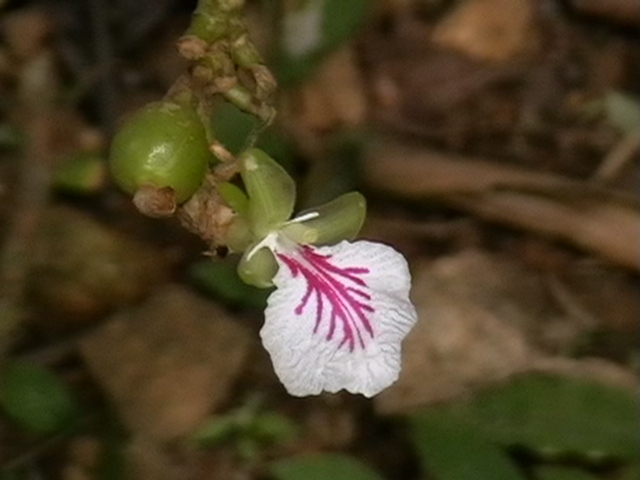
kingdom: Plantae
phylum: Tracheophyta
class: Liliopsida
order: Zingiberales
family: Zingiberaceae
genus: Elettaria
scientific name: Elettaria cardamomum
